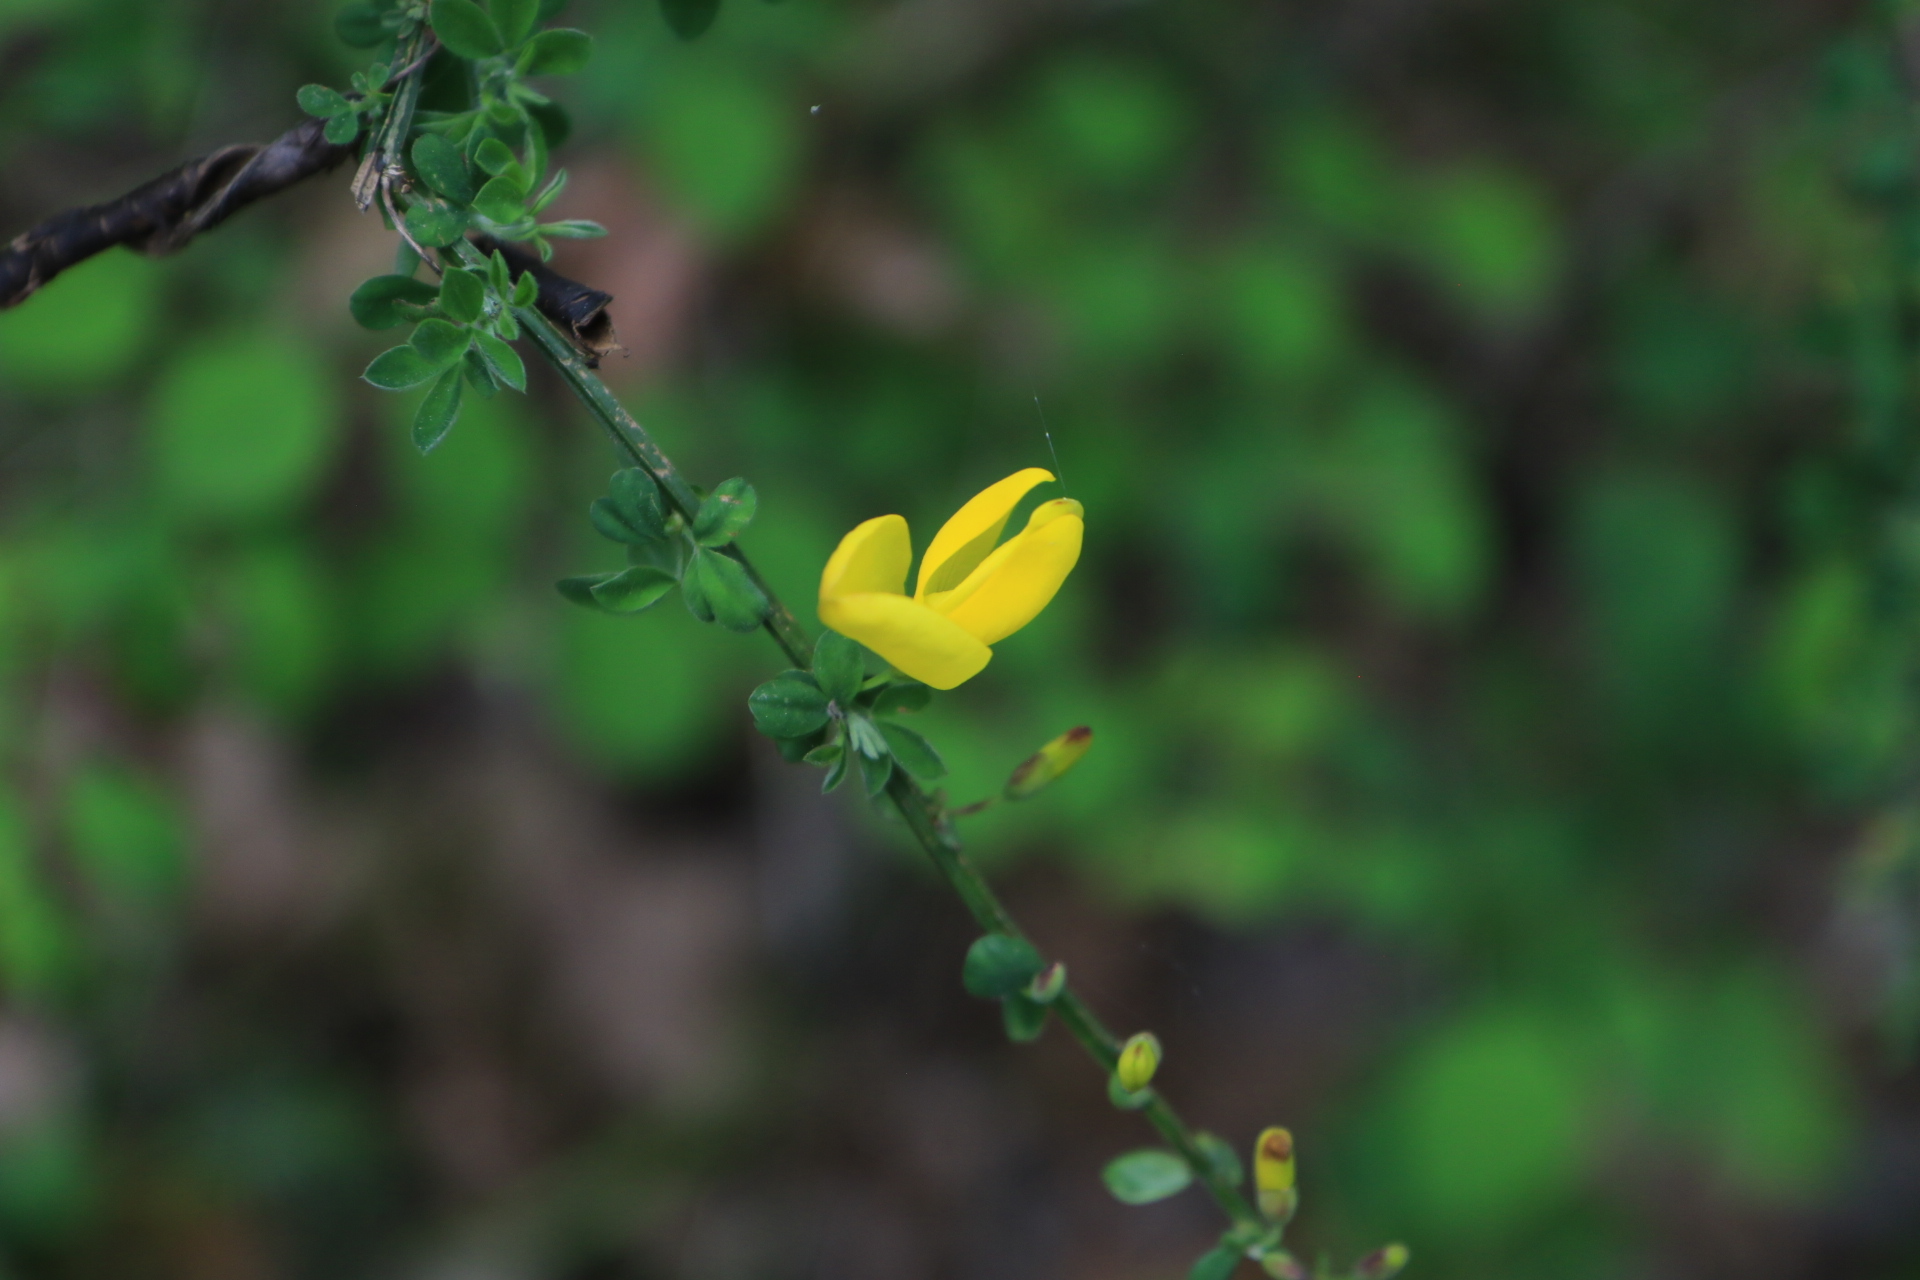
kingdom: Plantae
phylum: Tracheophyta
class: Magnoliopsida
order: Fabales
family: Fabaceae
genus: Cytisus
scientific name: Cytisus scoparius
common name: Scotch broom
